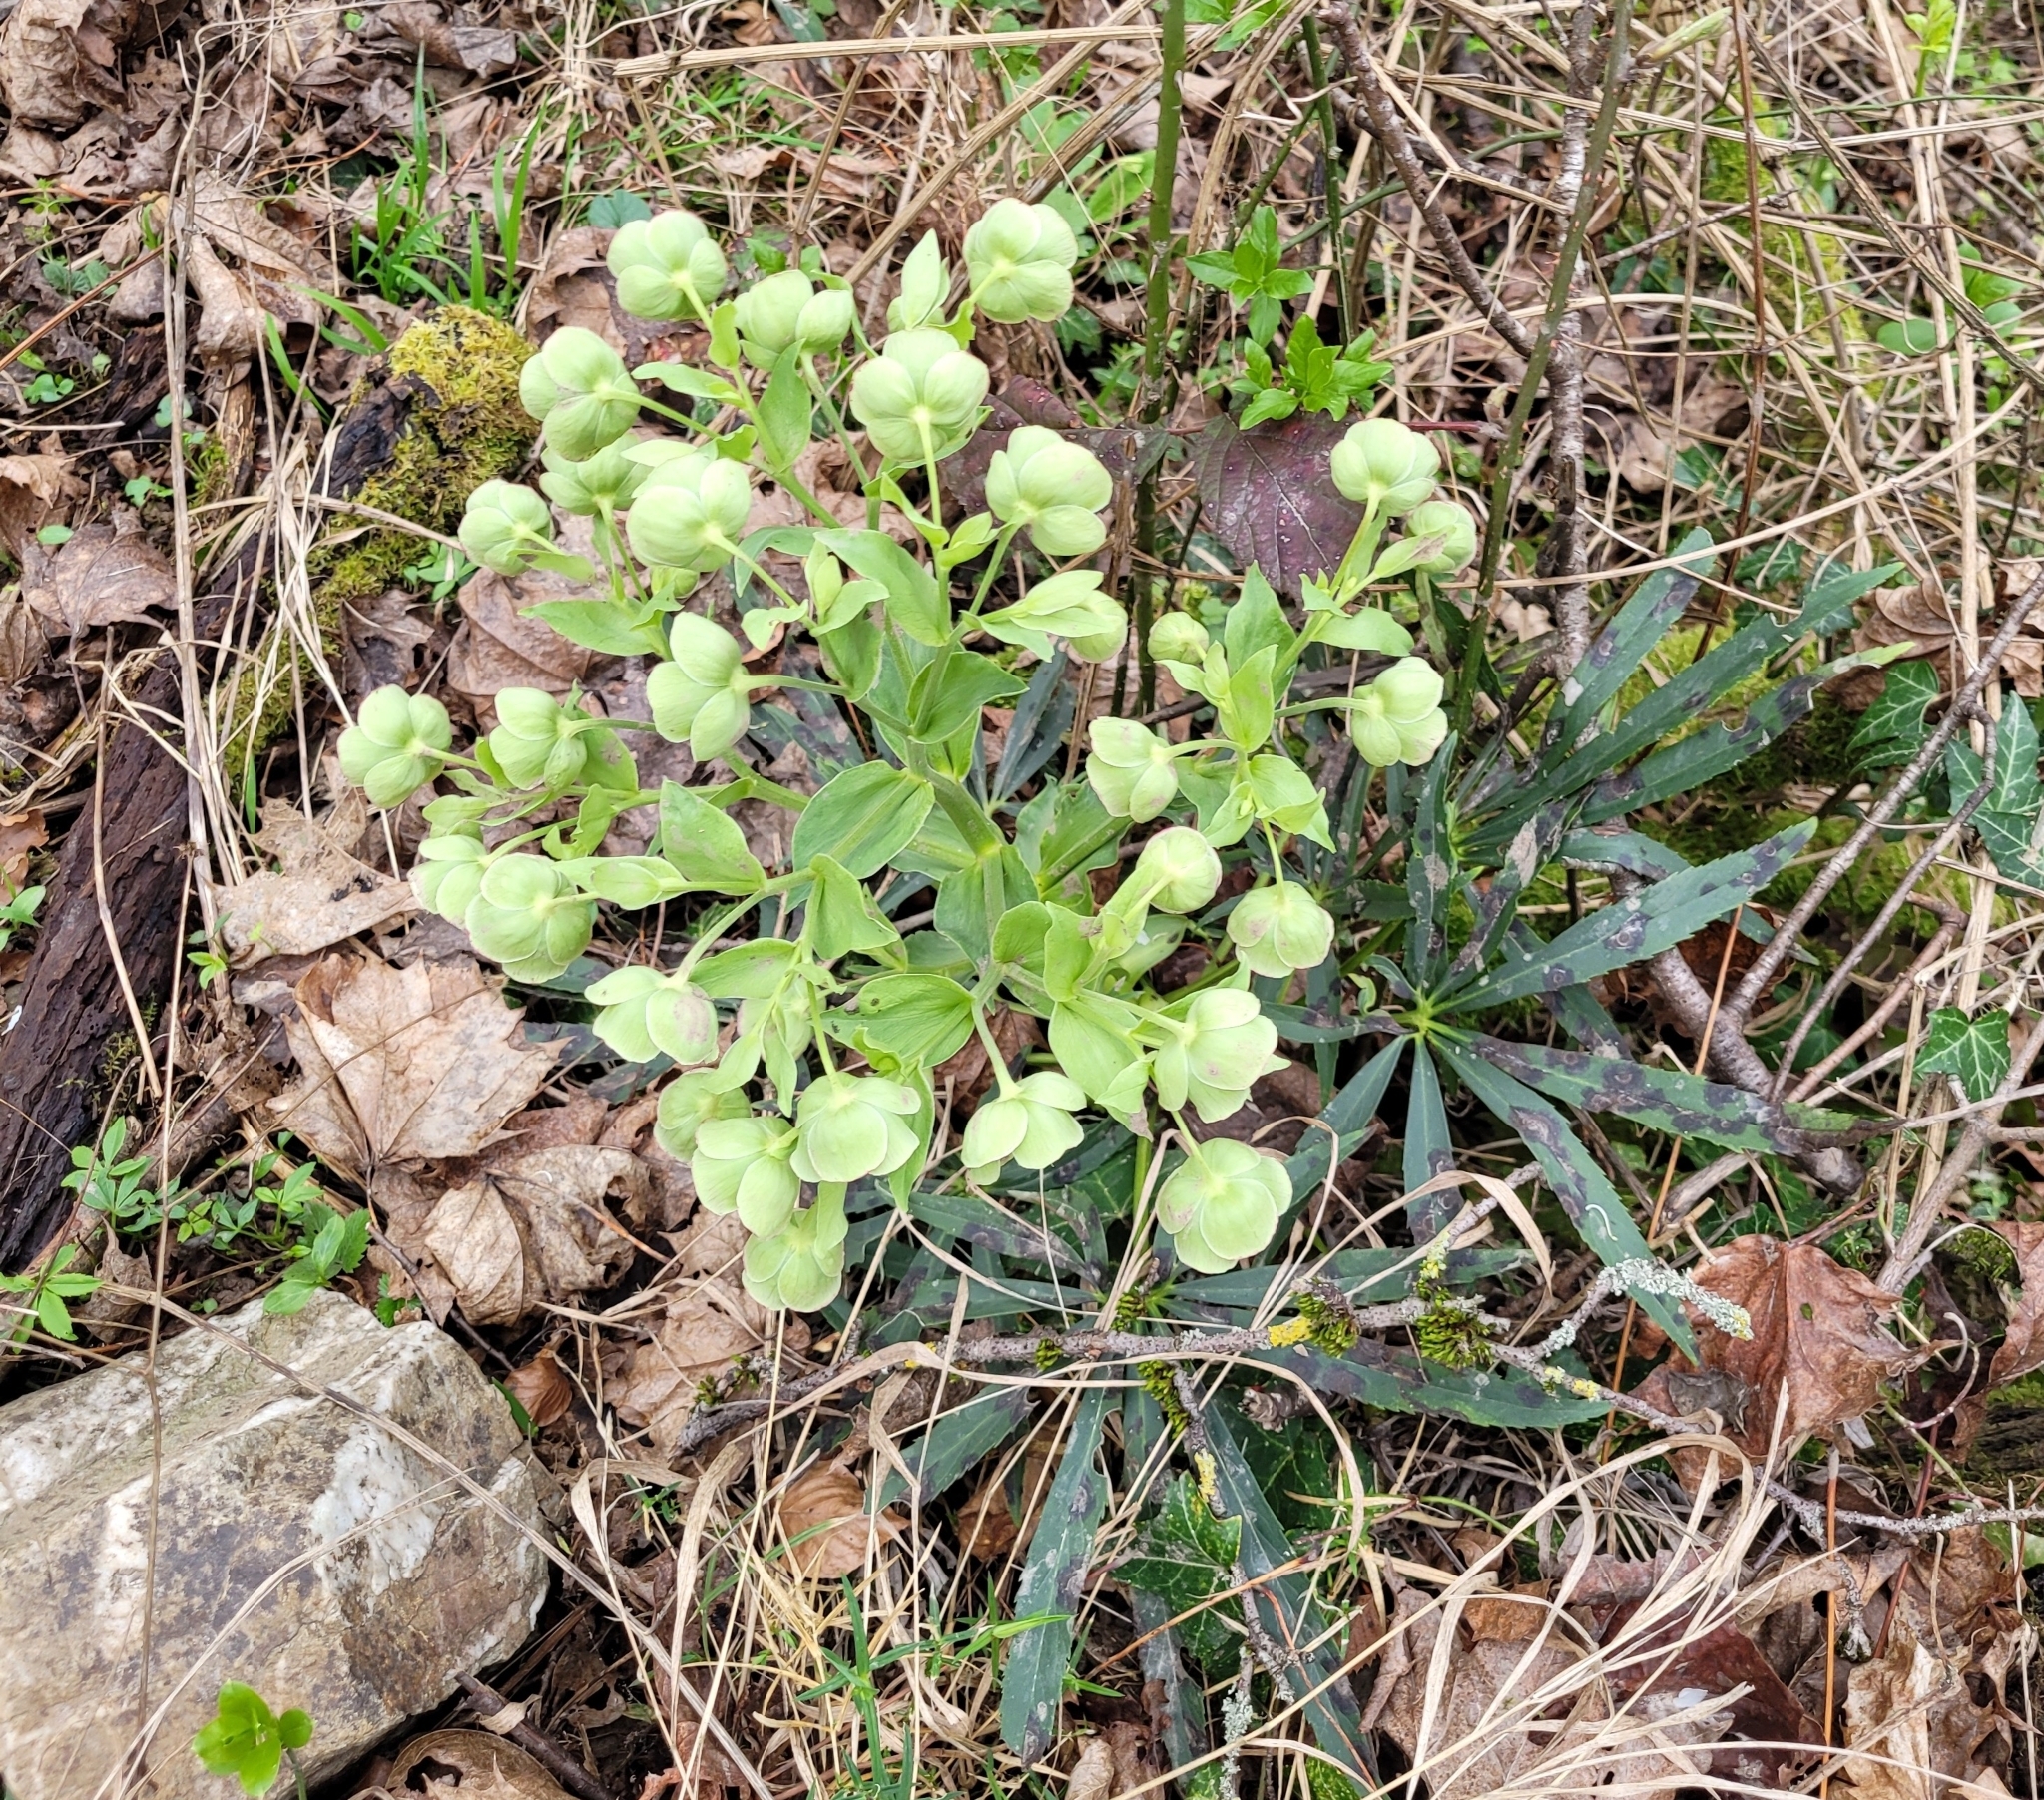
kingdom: Plantae
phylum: Tracheophyta
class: Magnoliopsida
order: Ranunculales
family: Ranunculaceae
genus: Helleborus
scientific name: Helleborus foetidus
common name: Stinking hellebore
